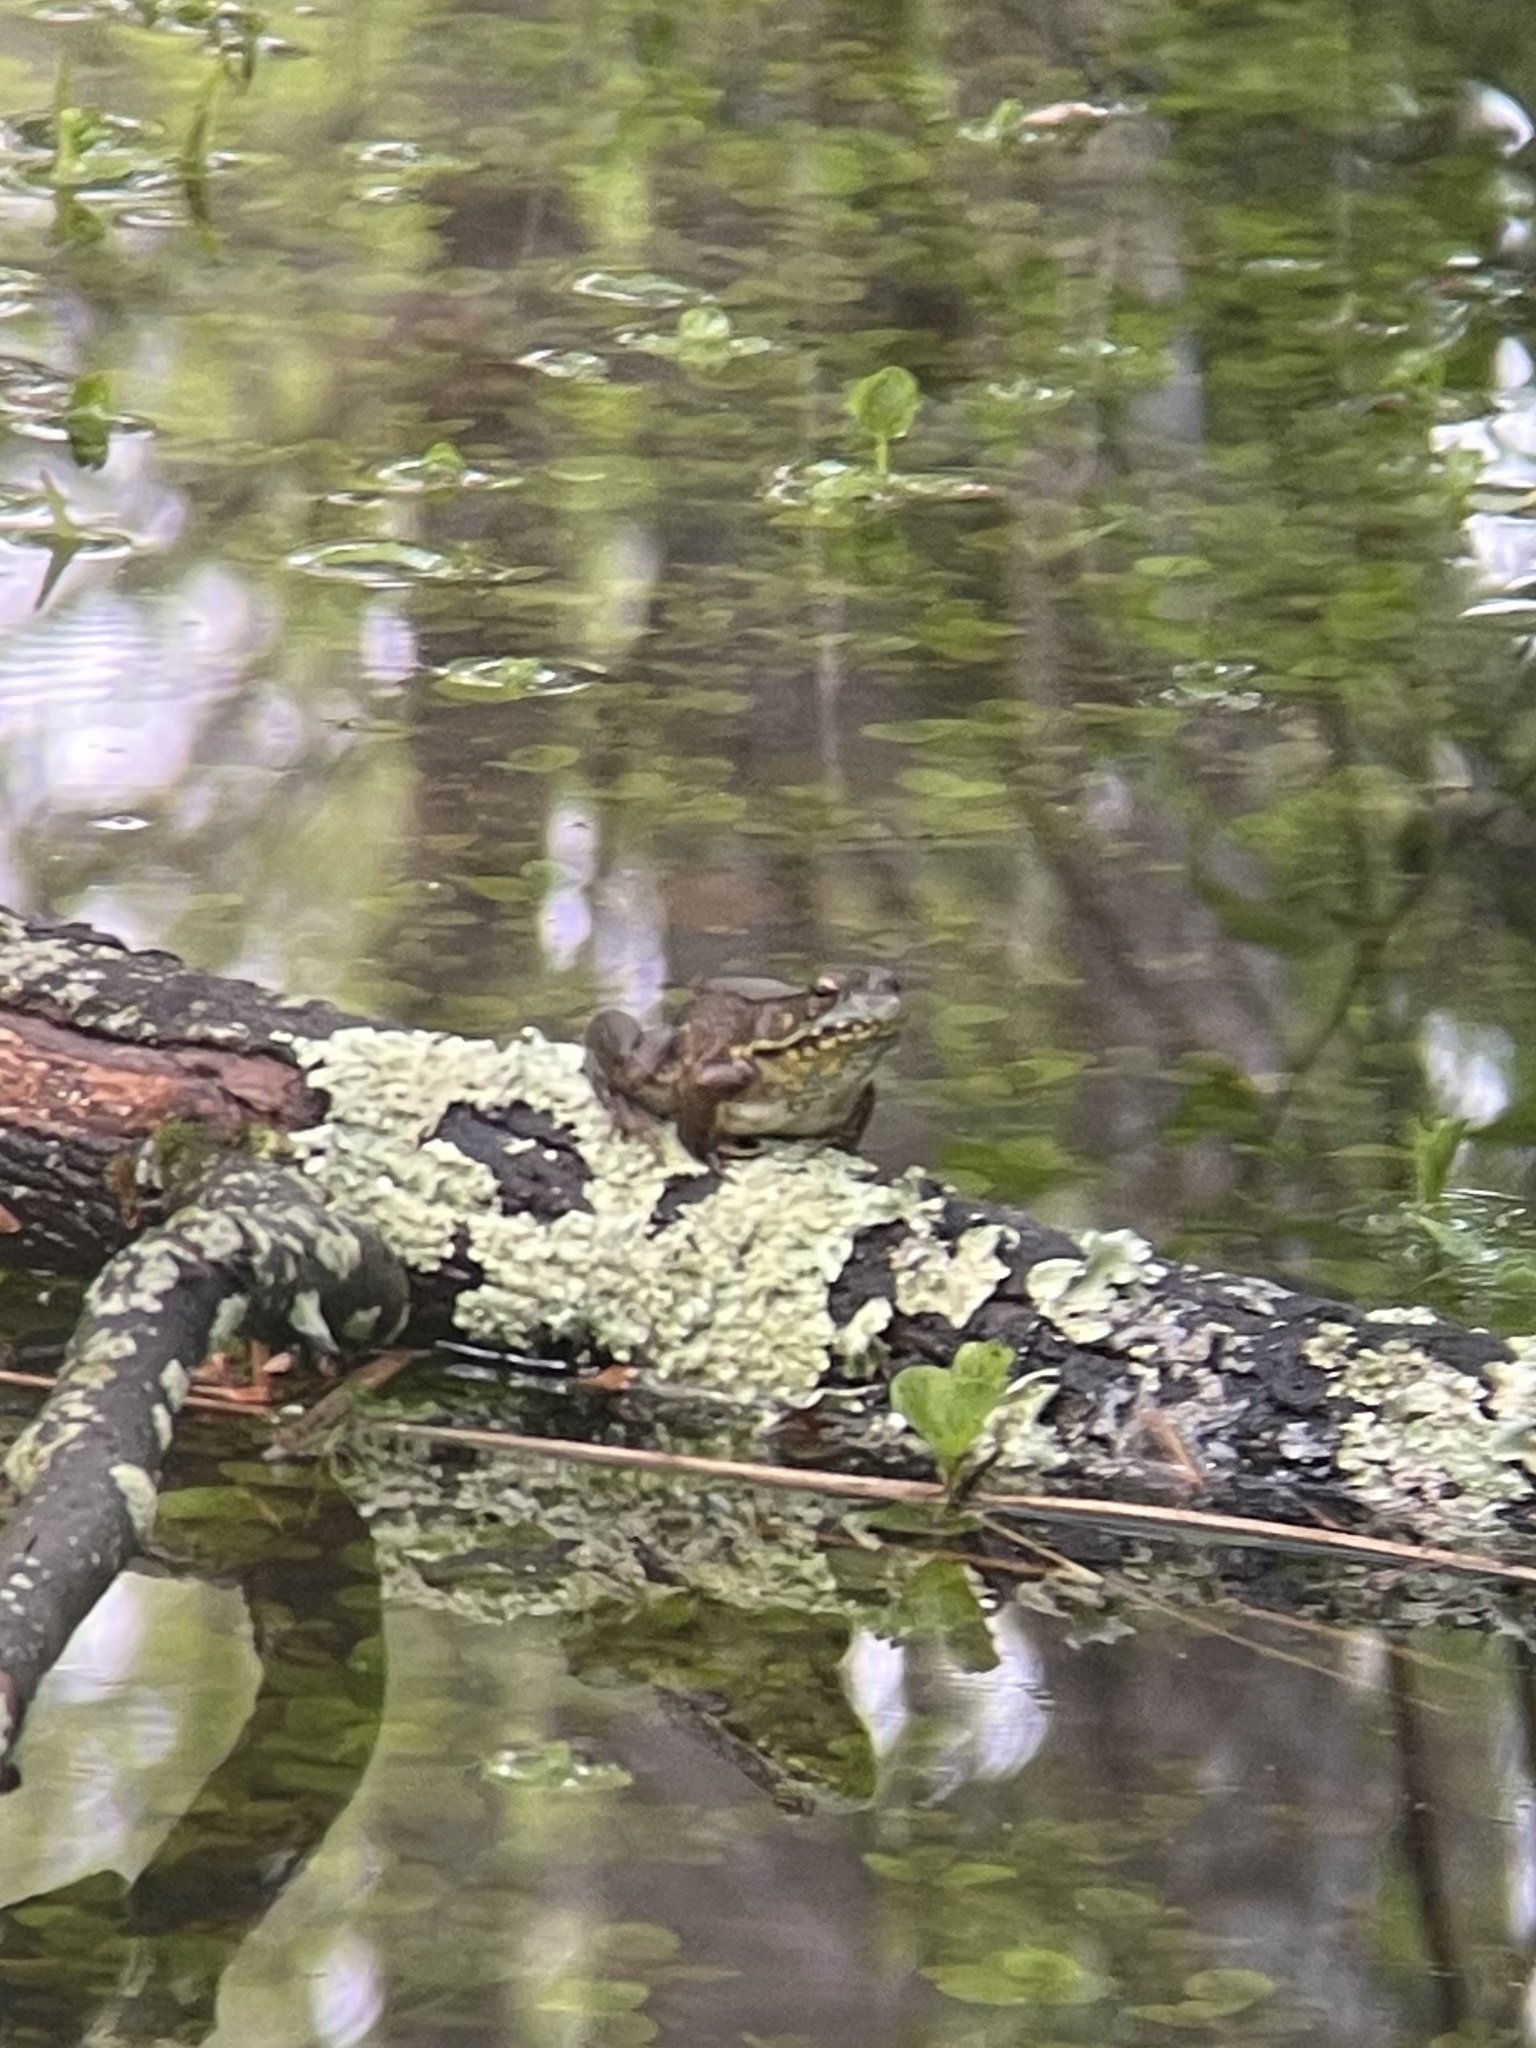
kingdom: Animalia
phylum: Chordata
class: Amphibia
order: Anura
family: Ranidae
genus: Lithobates
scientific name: Lithobates clamitans
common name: Green frog
